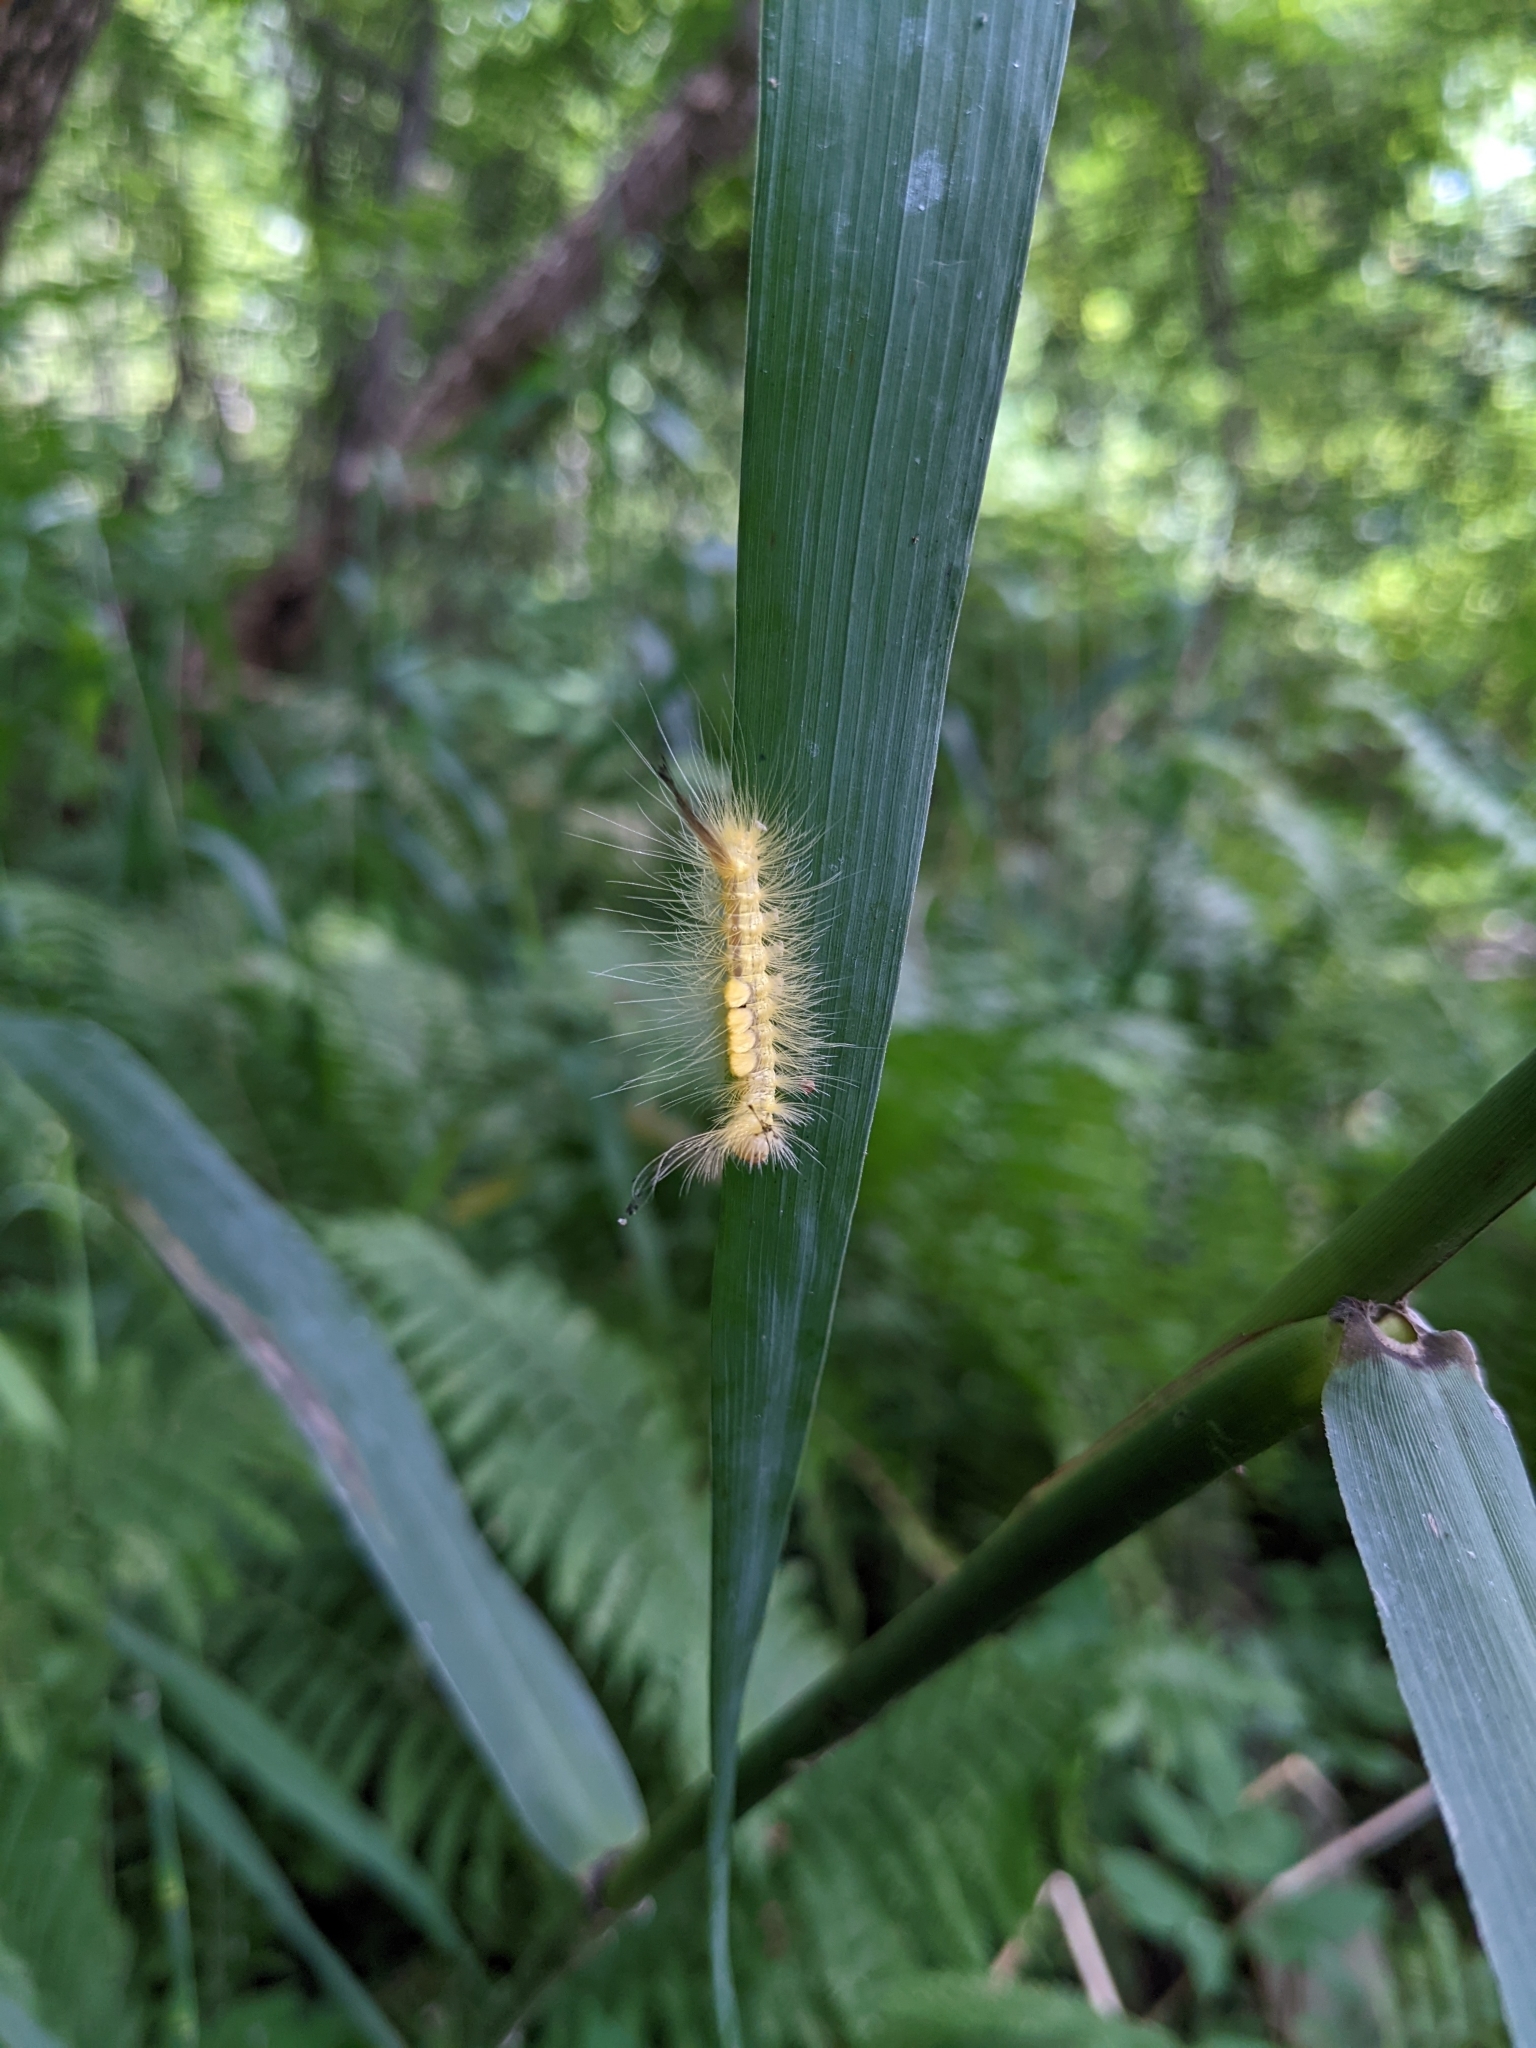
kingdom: Animalia
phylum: Arthropoda
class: Insecta
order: Lepidoptera
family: Erebidae
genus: Orgyia
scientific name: Orgyia definita
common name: Definite tussock moth
